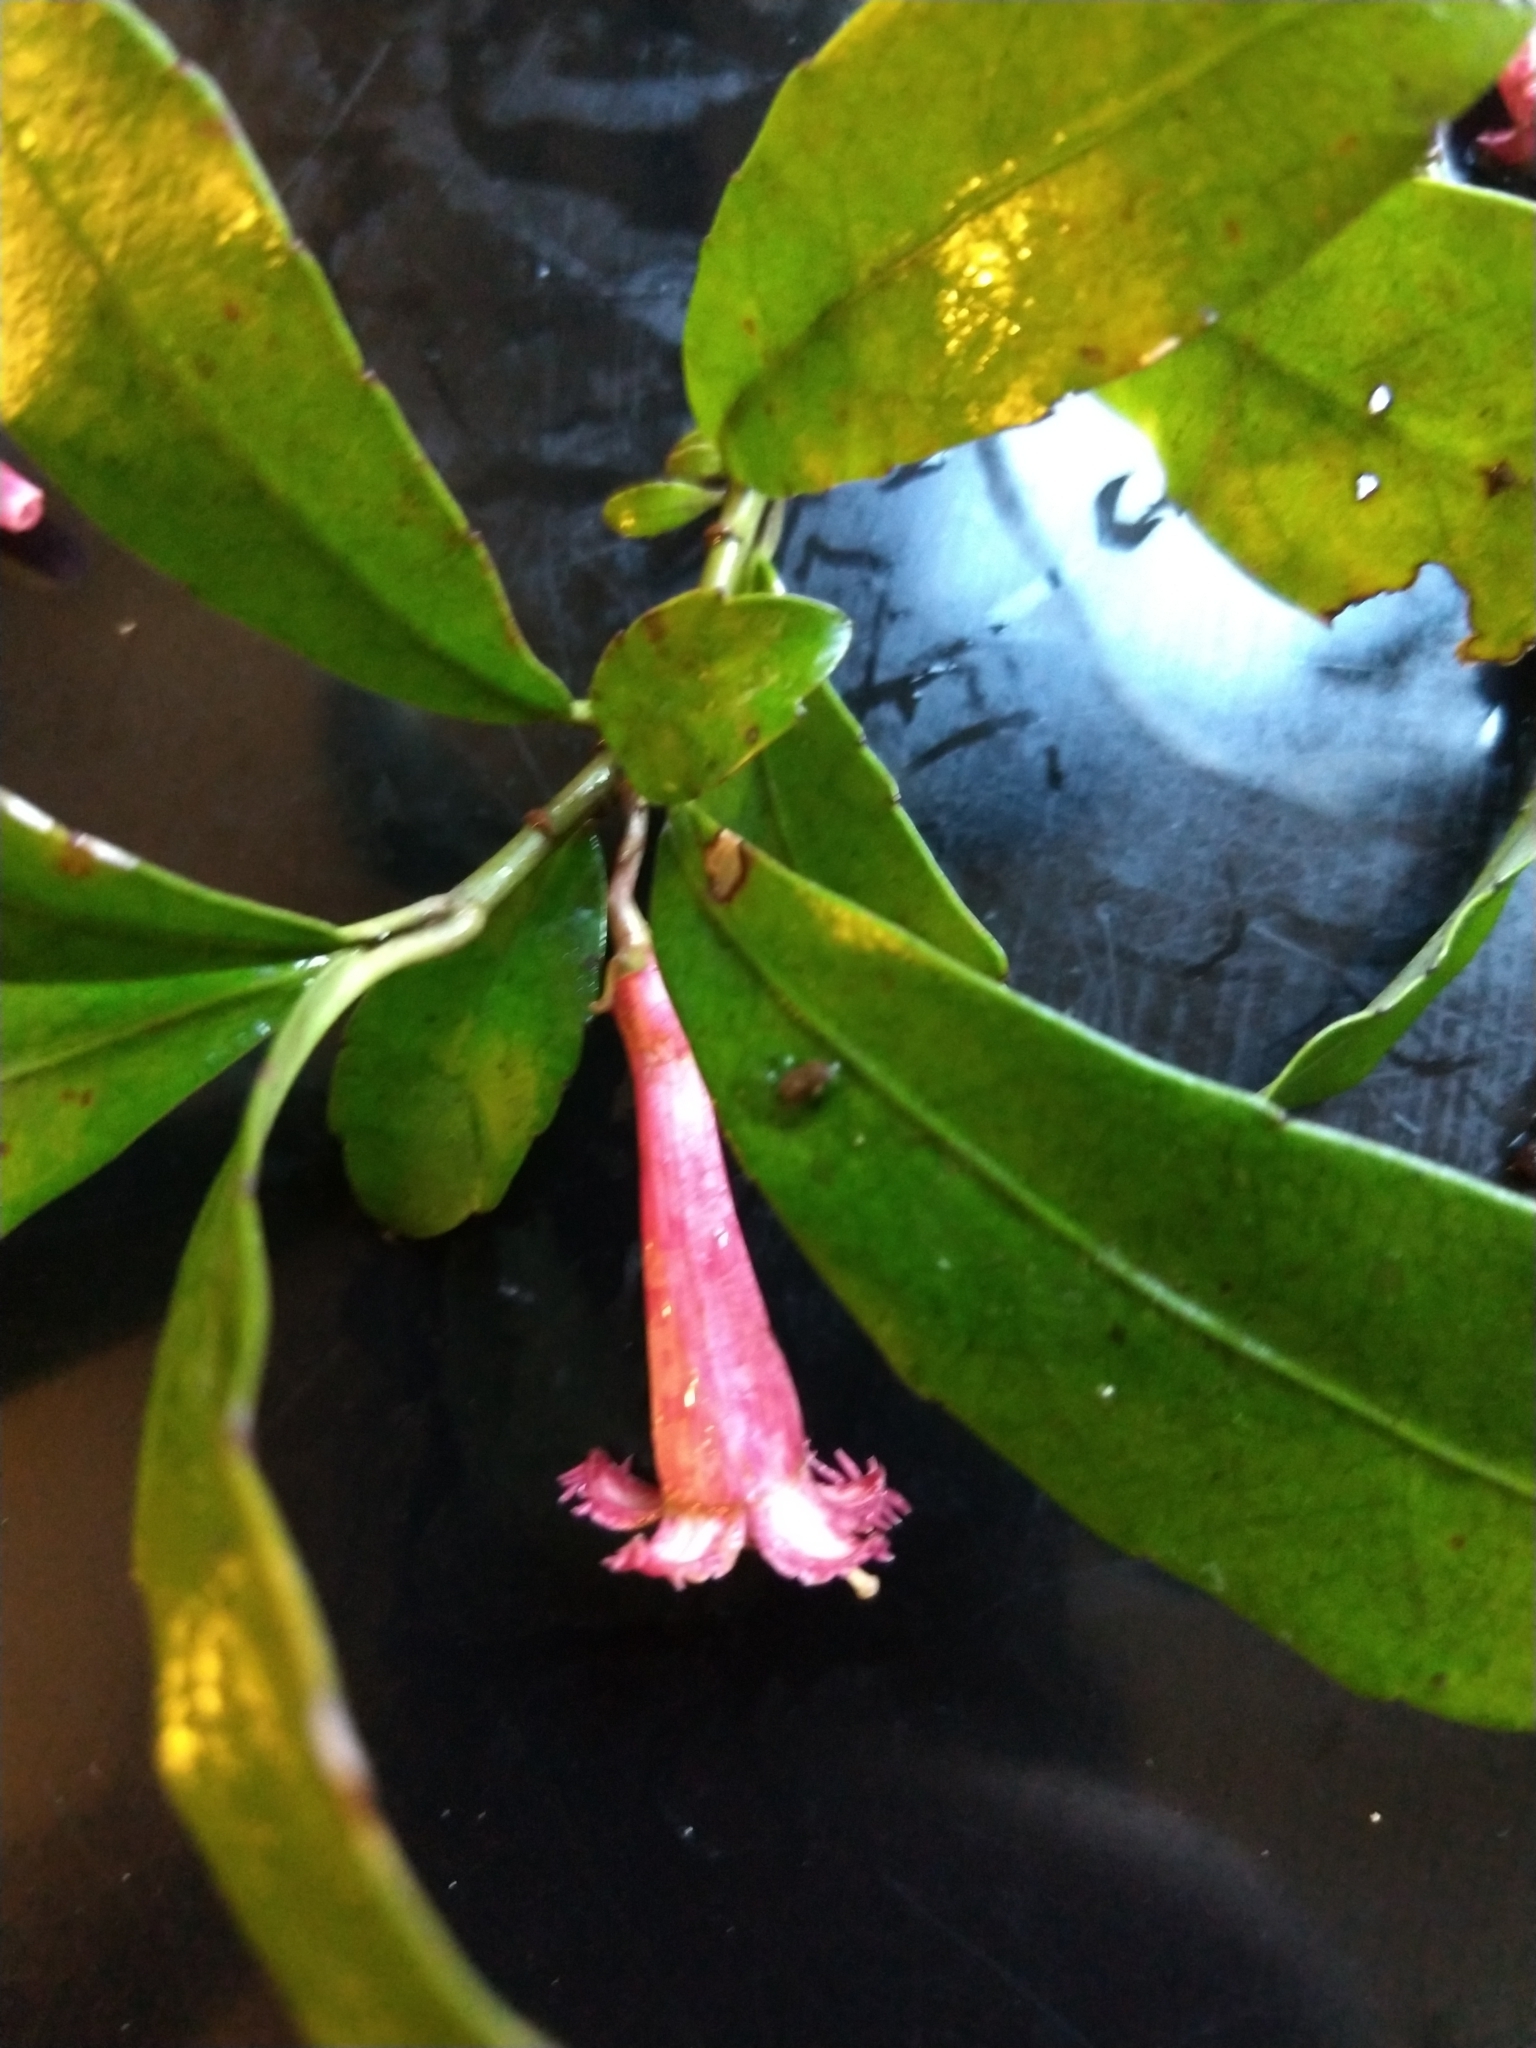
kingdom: Plantae
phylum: Tracheophyta
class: Magnoliopsida
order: Asterales
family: Alseuosmiaceae
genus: Alseuosmia
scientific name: Alseuosmia macrophylla
